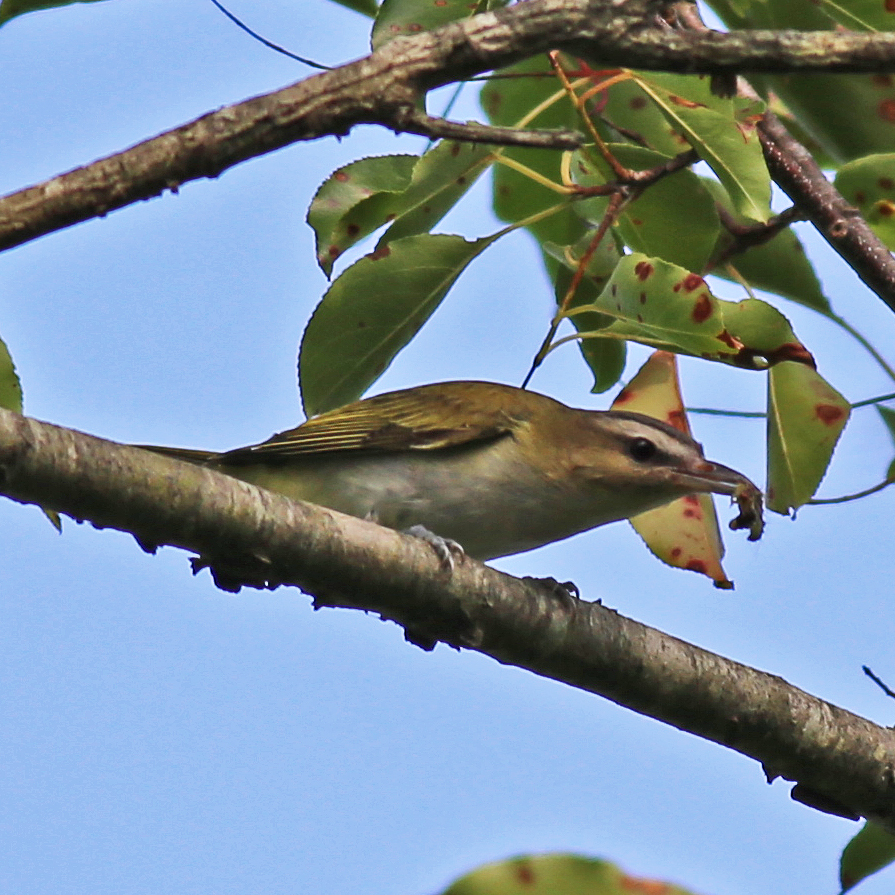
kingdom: Animalia
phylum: Chordata
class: Aves
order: Passeriformes
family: Vireonidae
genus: Vireo
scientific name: Vireo olivaceus
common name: Red-eyed vireo
